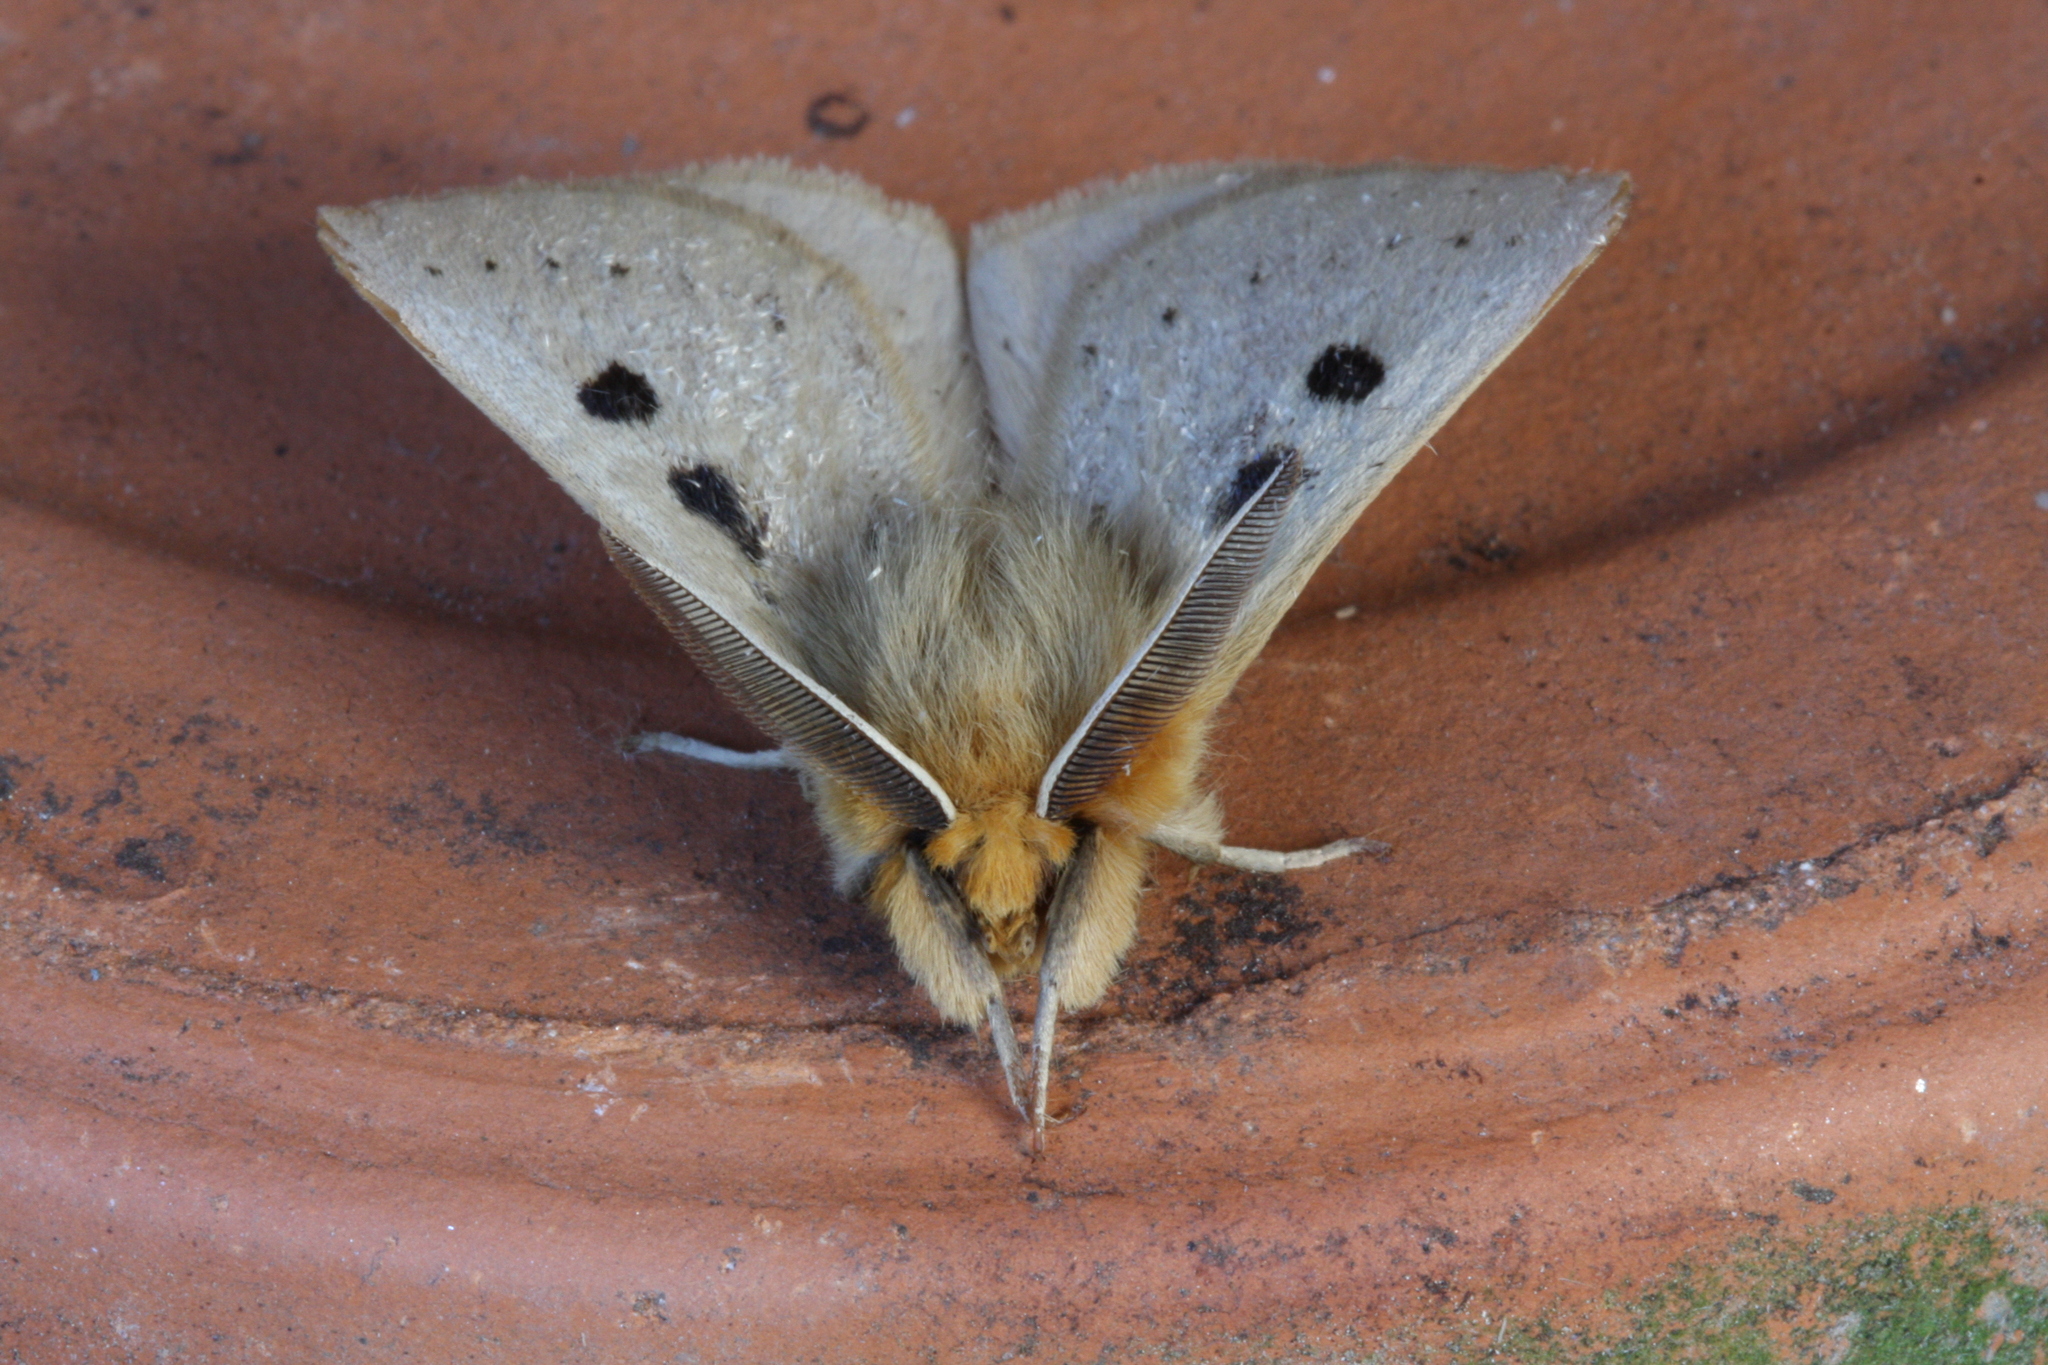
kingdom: Animalia
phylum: Arthropoda
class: Insecta
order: Lepidoptera
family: Anthelidae
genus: Anthela
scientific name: Anthela ocellata
